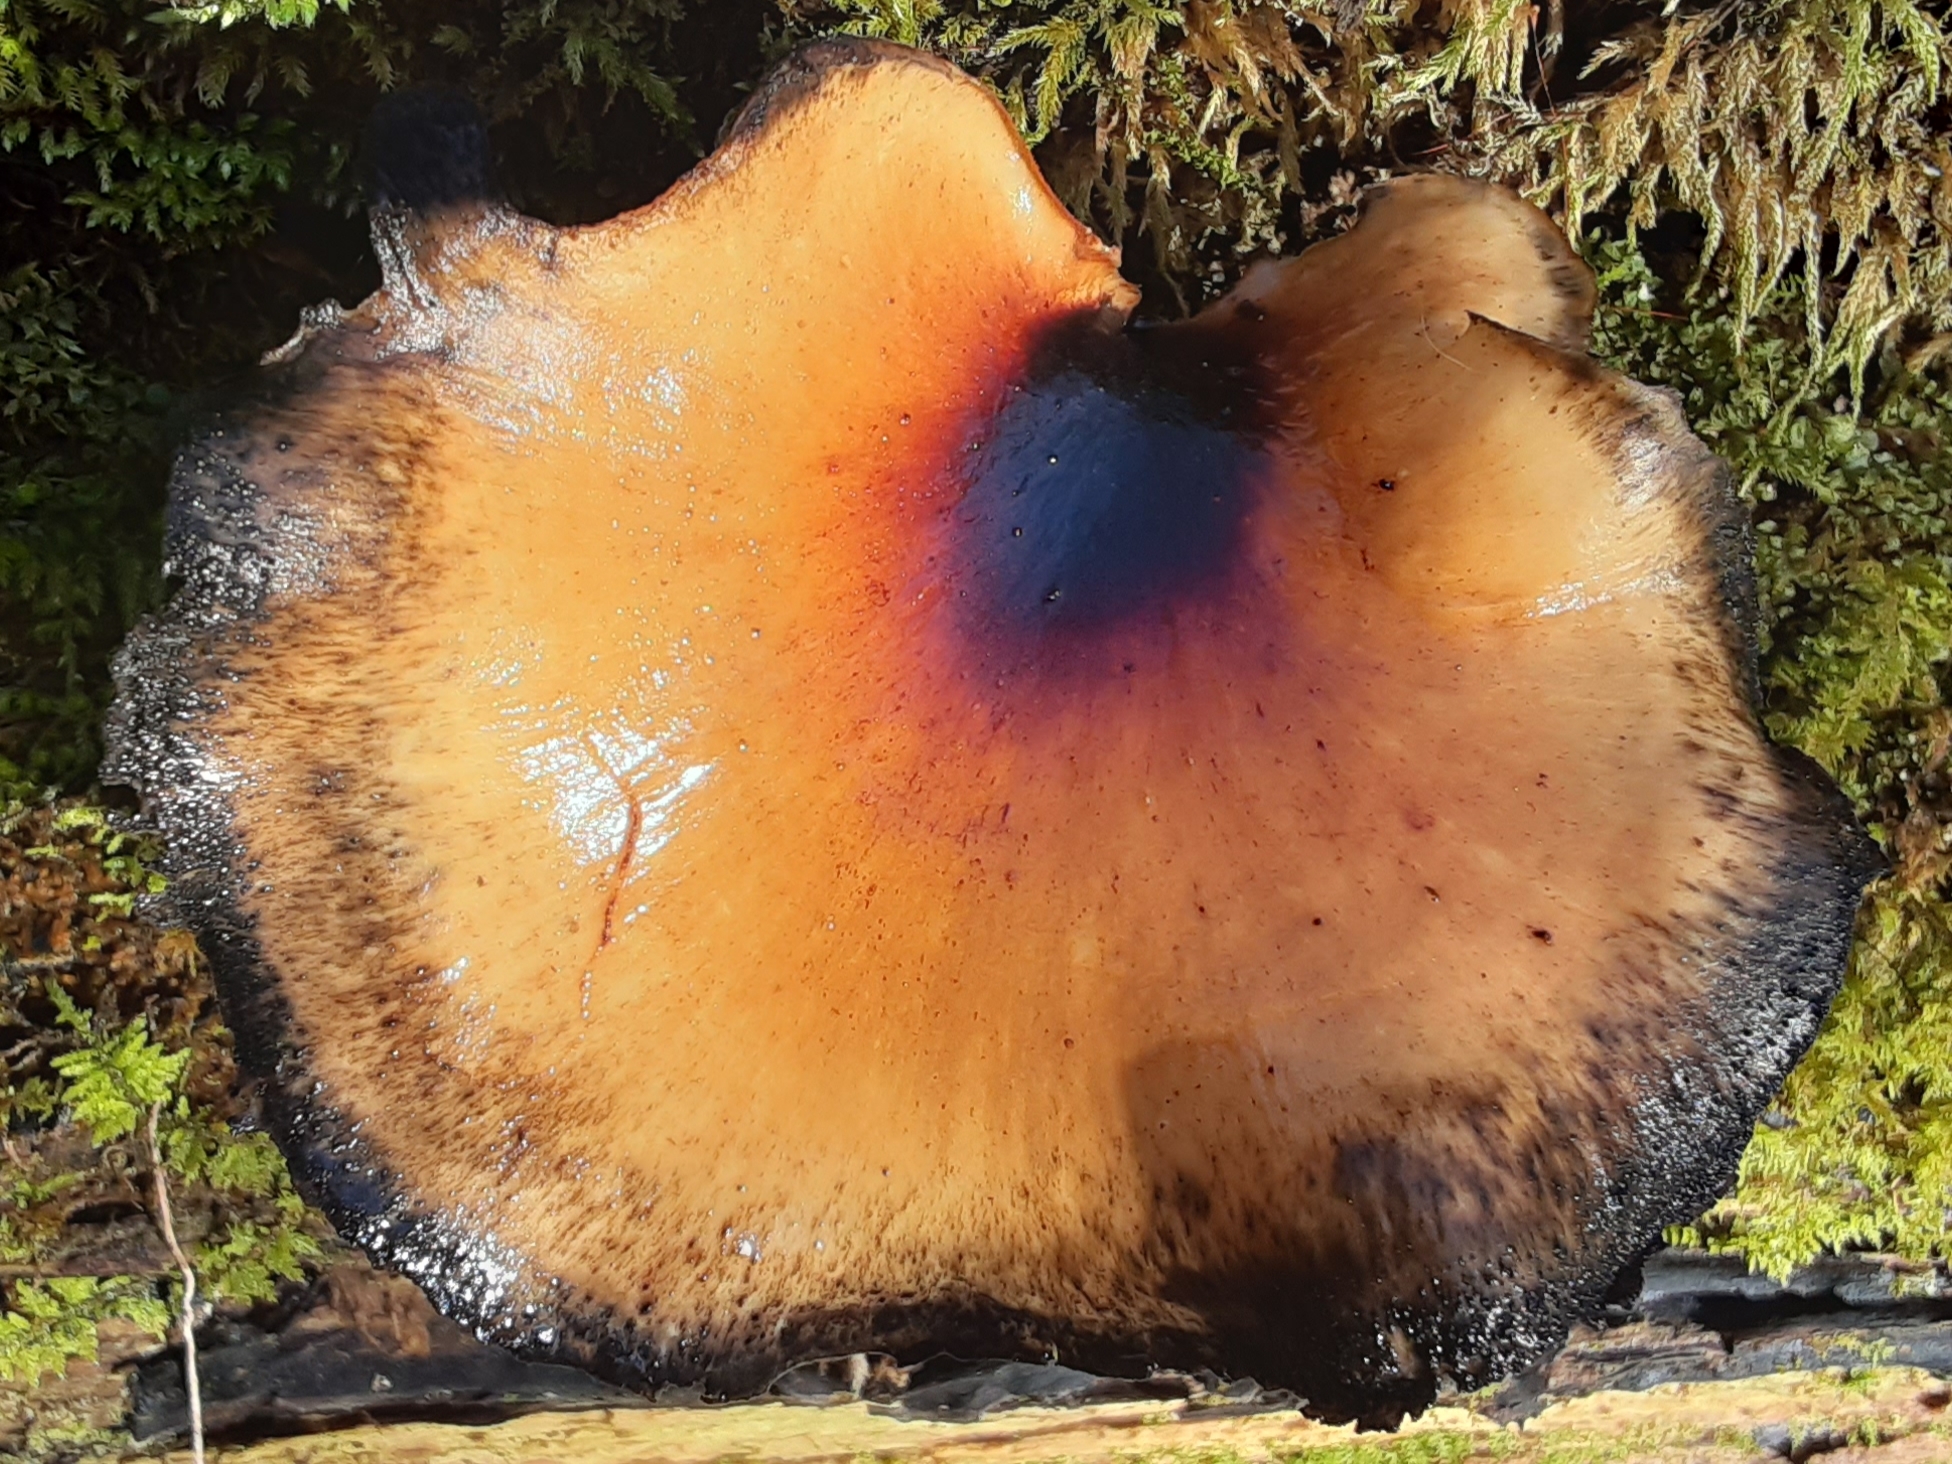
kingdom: Fungi
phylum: Basidiomycota
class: Agaricomycetes
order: Polyporales
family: Polyporaceae
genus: Picipes
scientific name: Picipes badius
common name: Bay polypore
